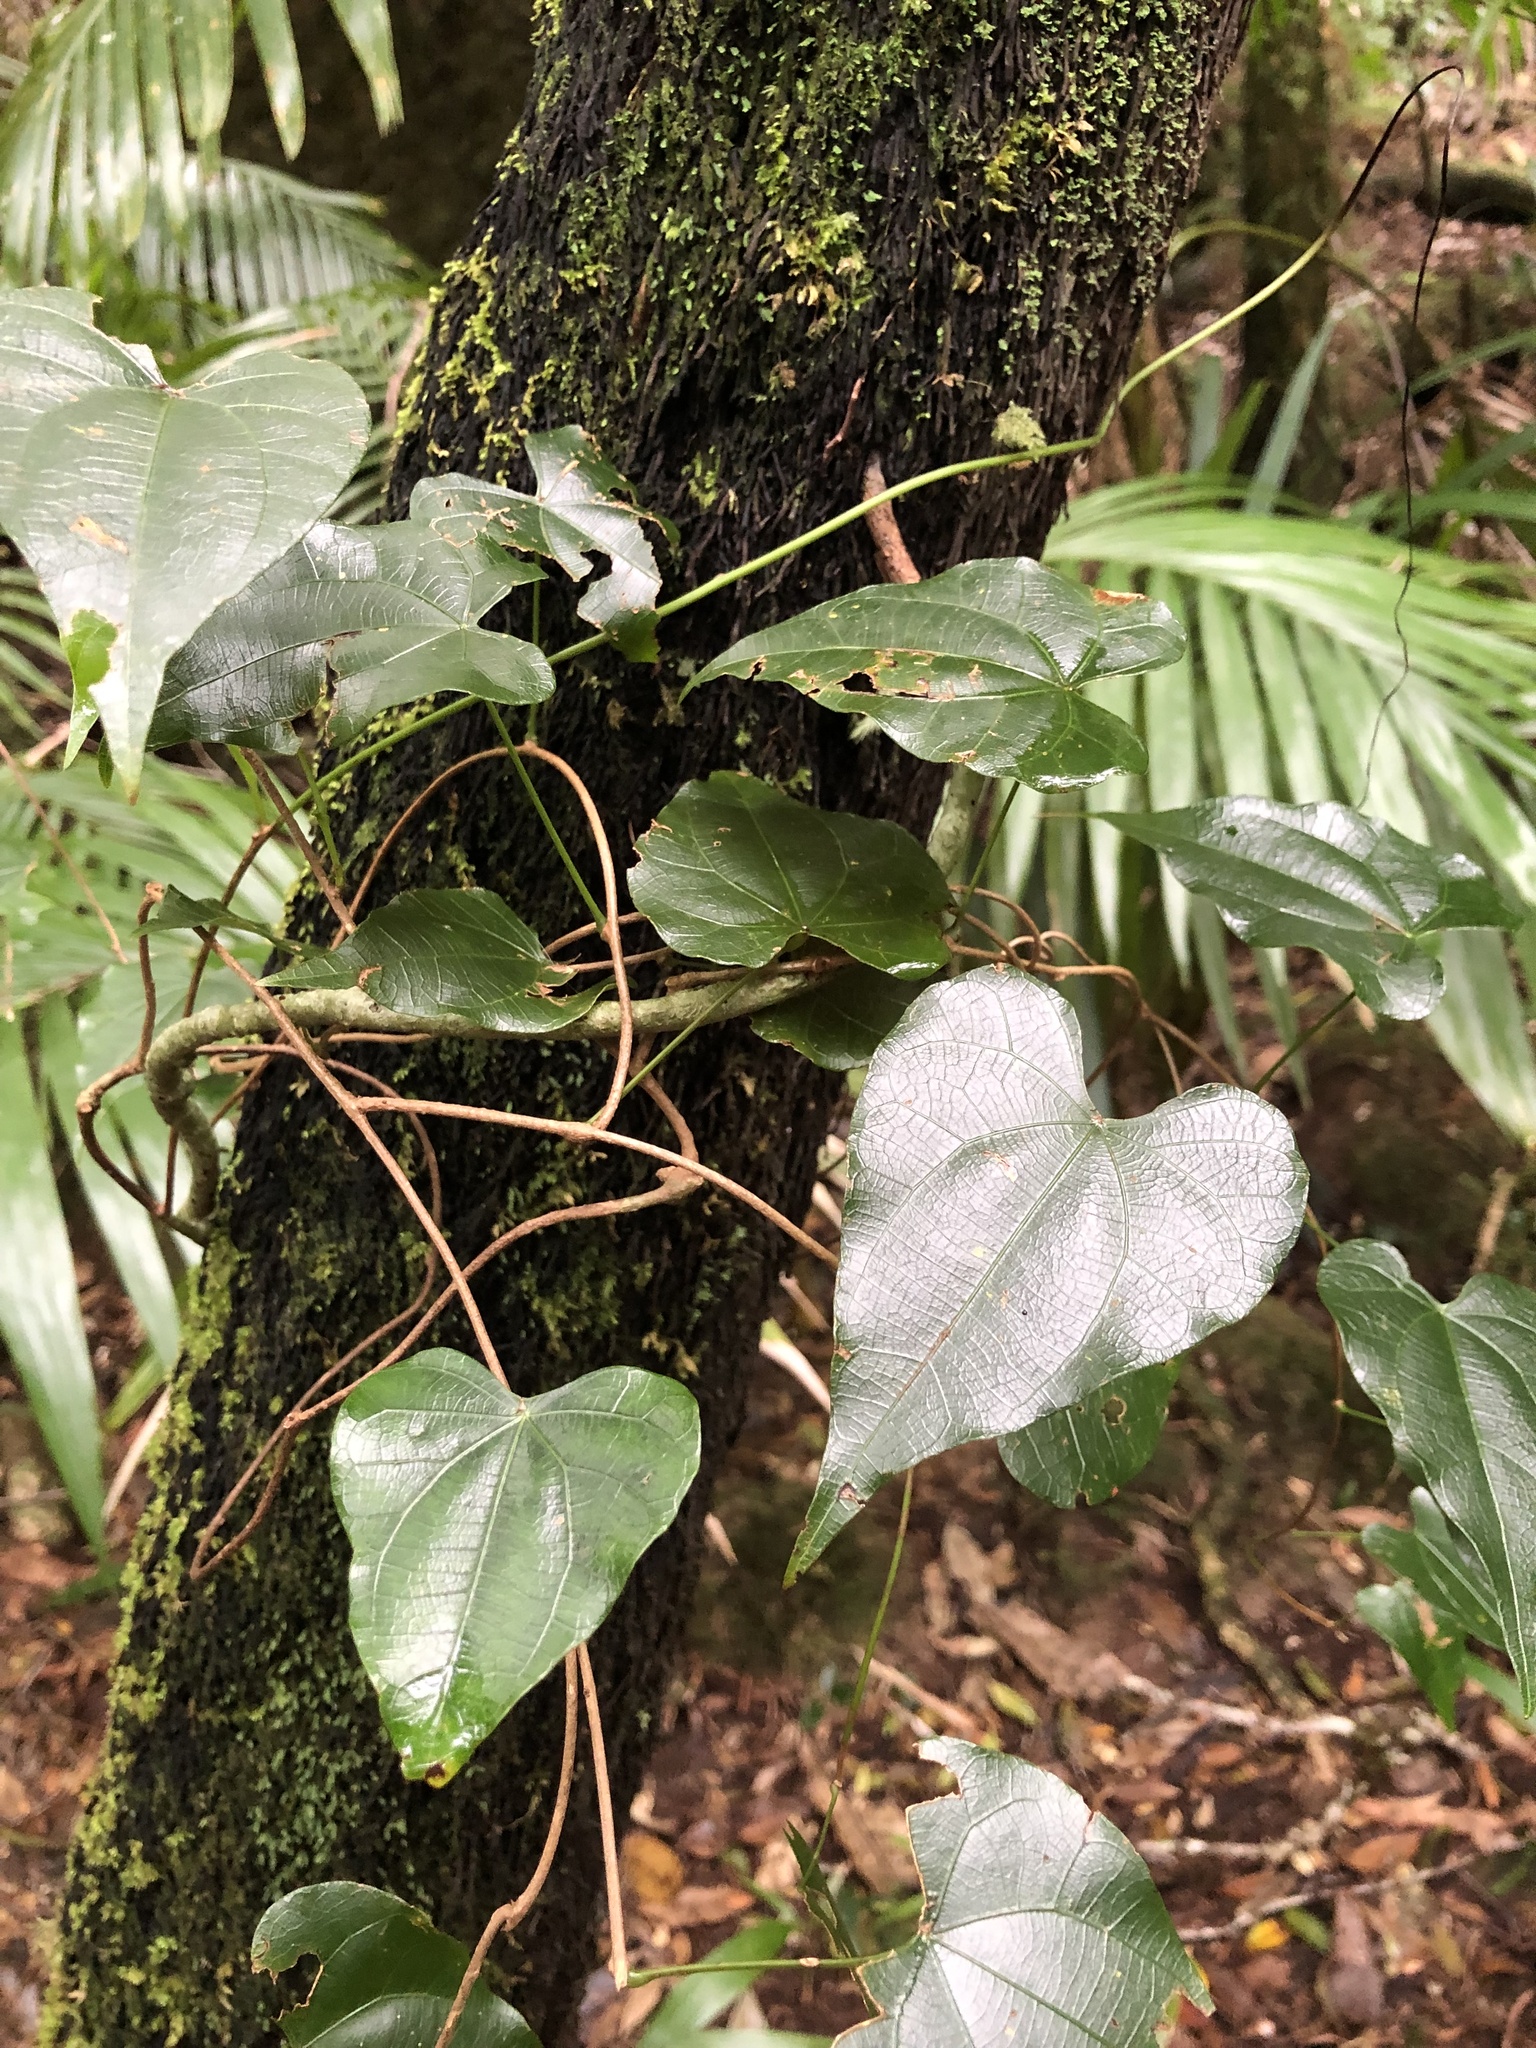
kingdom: Plantae
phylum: Tracheophyta
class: Magnoliopsida
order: Ranunculales
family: Menispermaceae
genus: Sarcopetalum
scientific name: Sarcopetalum harveyanum
